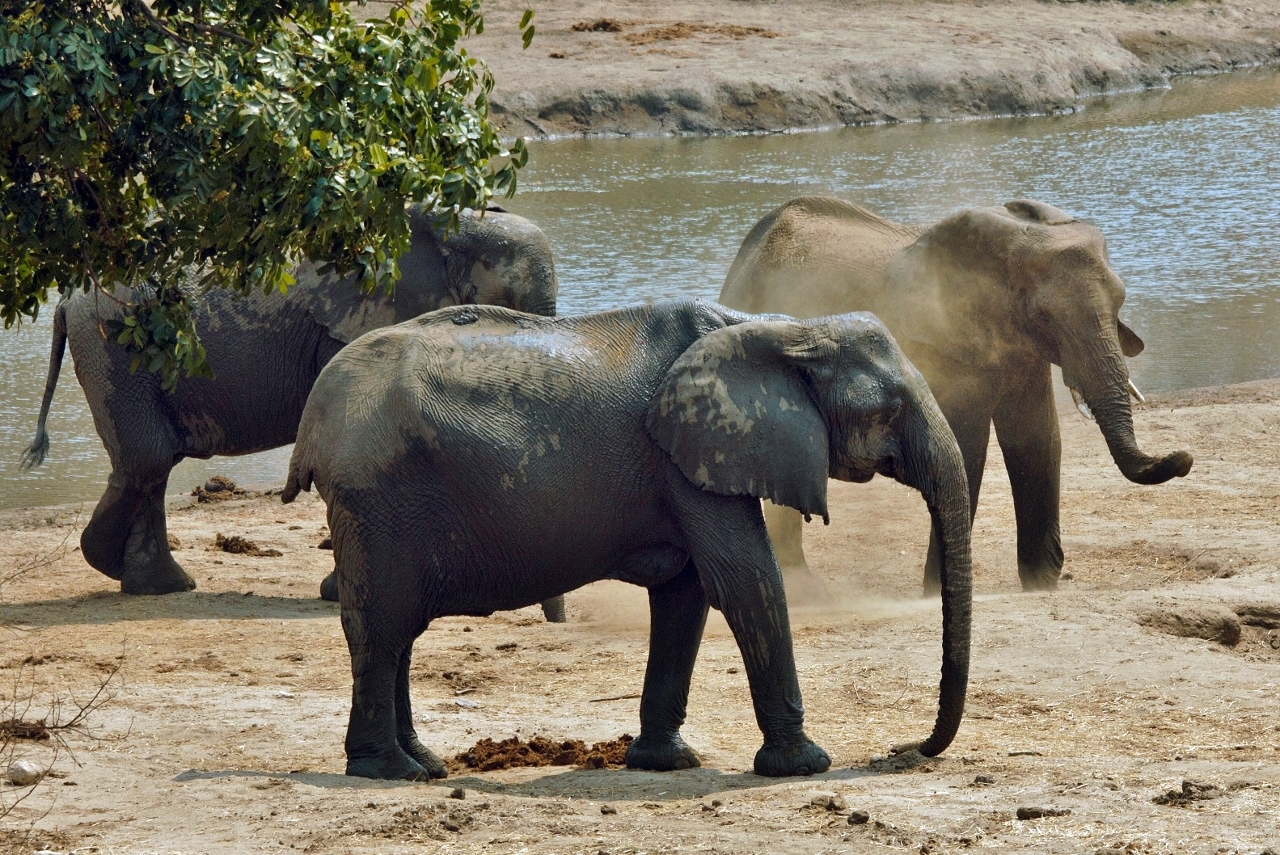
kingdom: Animalia
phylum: Chordata
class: Mammalia
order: Proboscidea
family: Elephantidae
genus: Loxodonta
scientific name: Loxodonta africana
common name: African elephant
